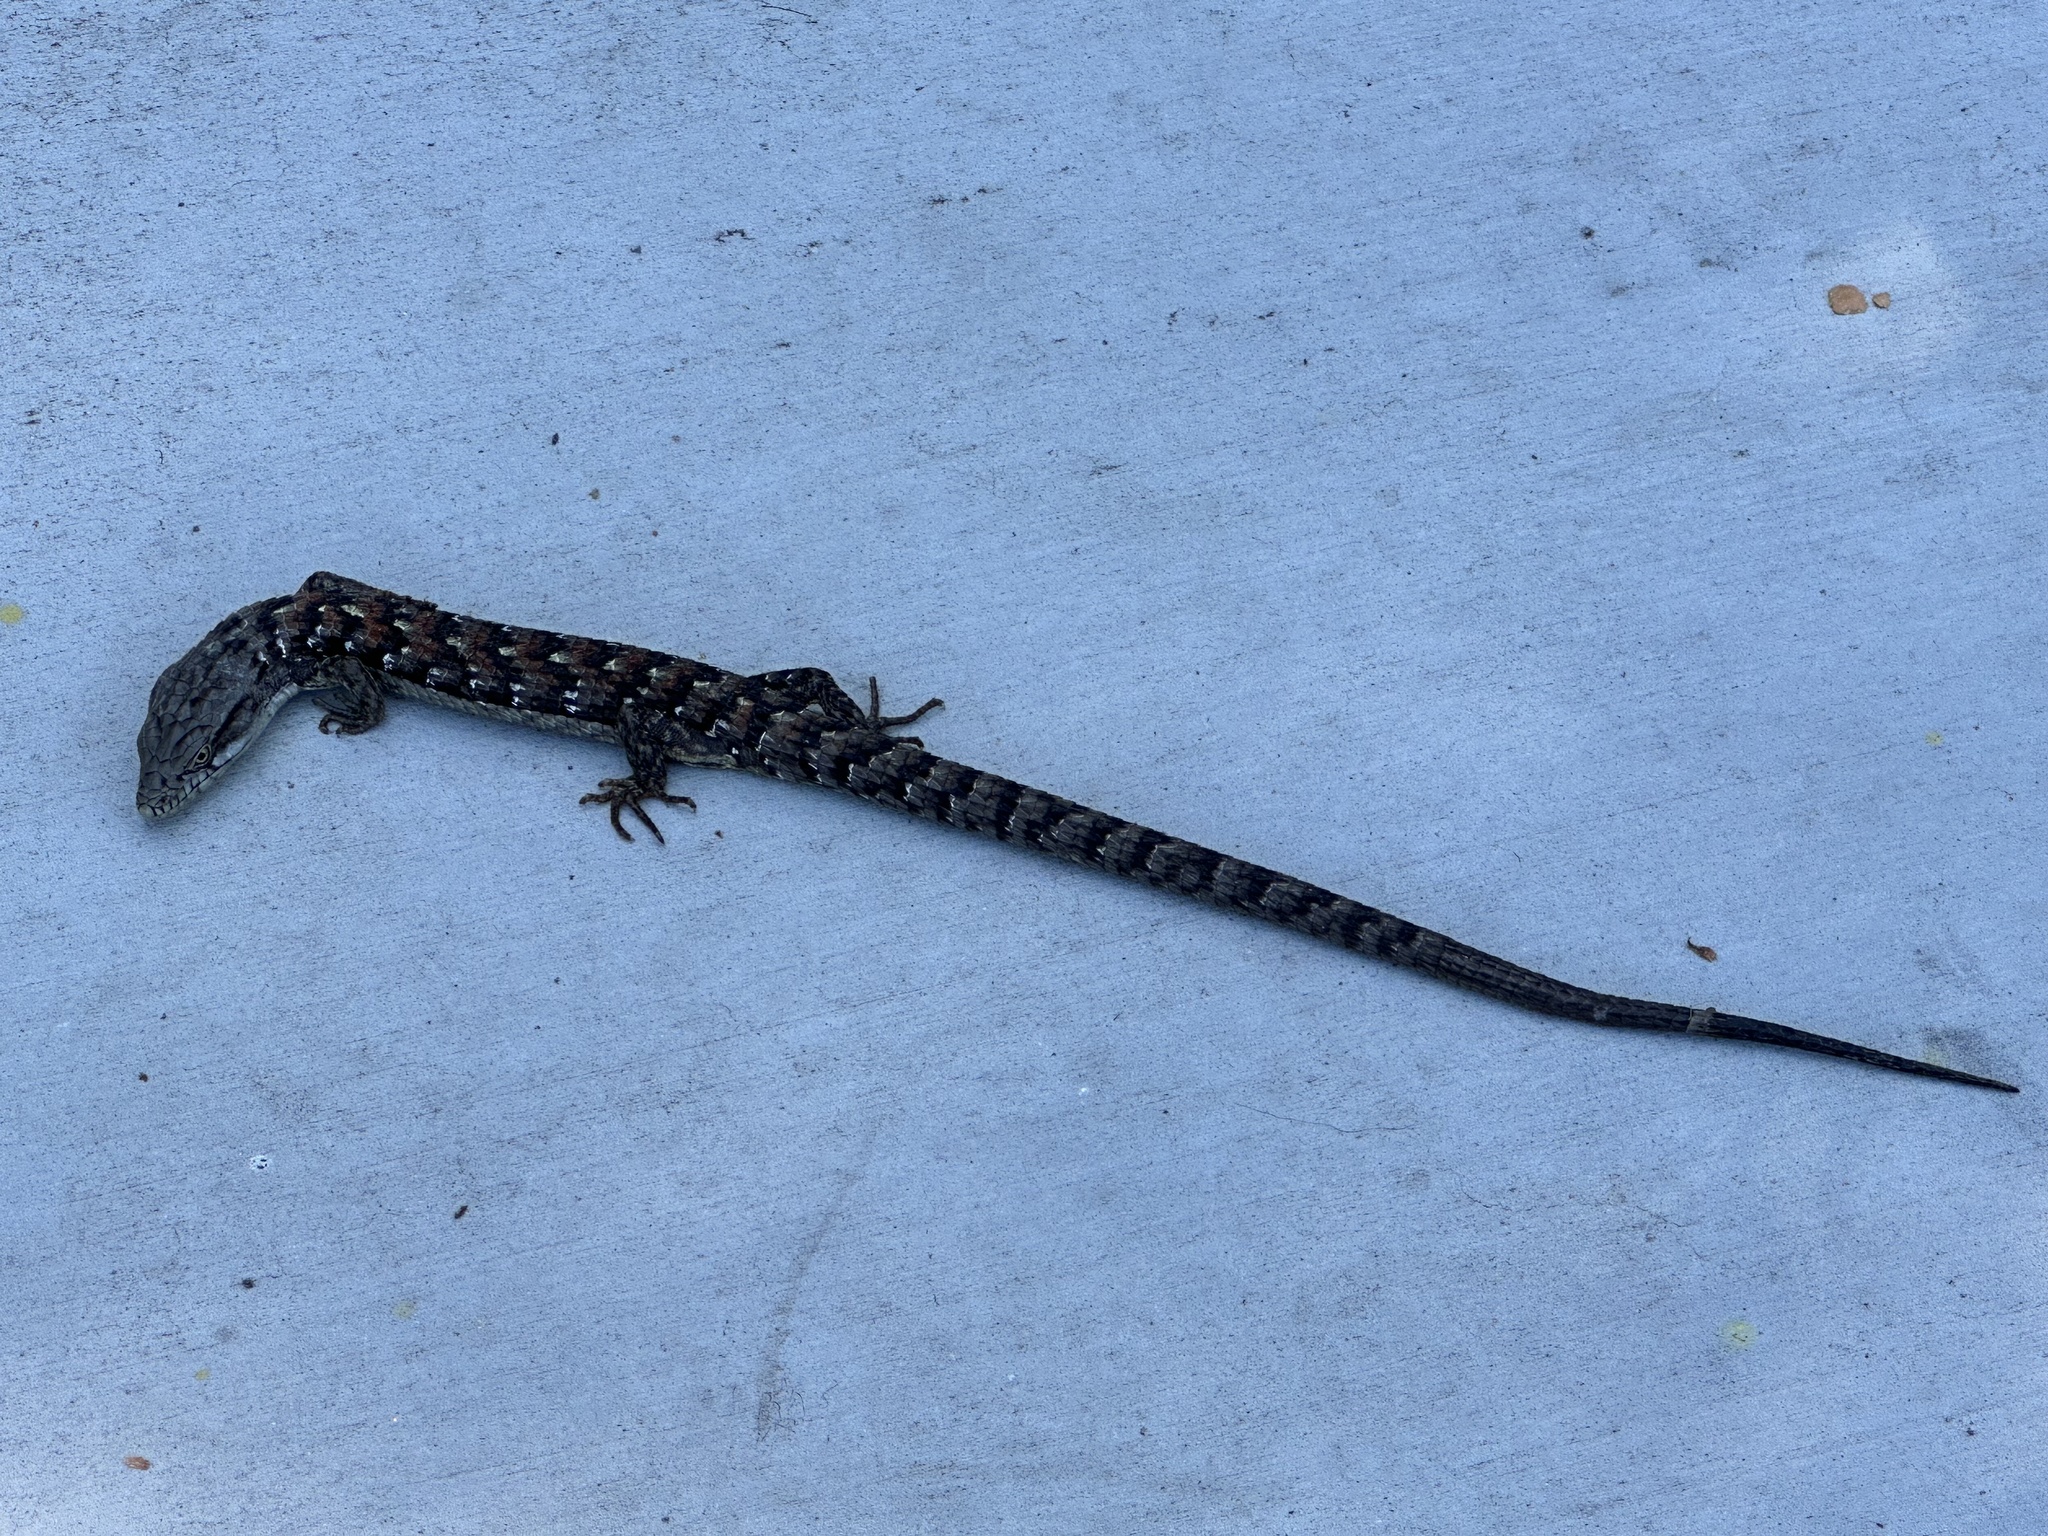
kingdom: Animalia
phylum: Chordata
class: Squamata
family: Anguidae
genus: Elgaria
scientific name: Elgaria multicarinata
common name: Southern alligator lizard
